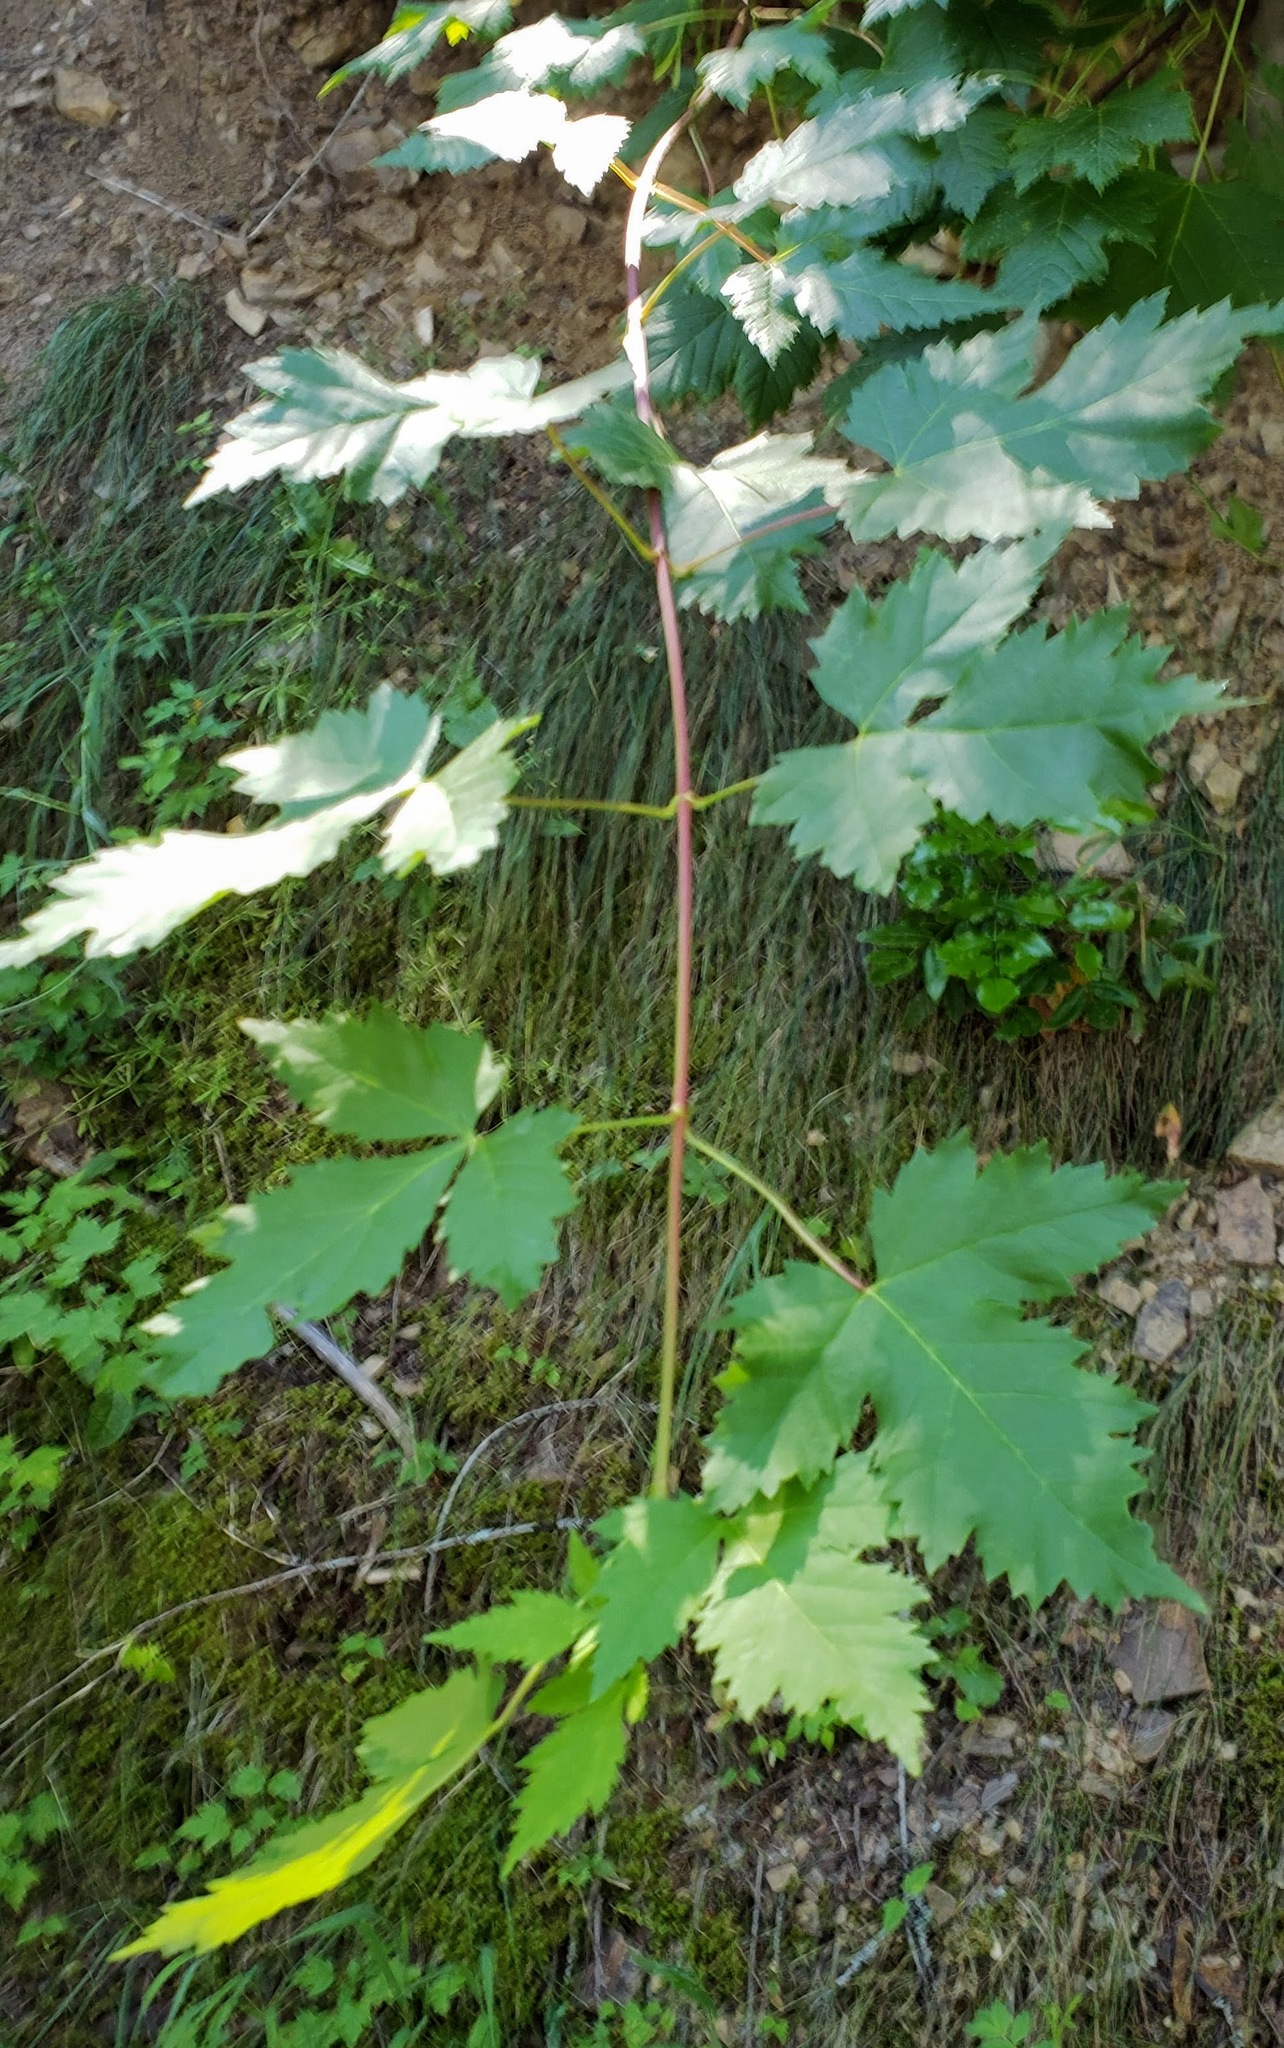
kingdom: Plantae
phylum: Tracheophyta
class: Magnoliopsida
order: Sapindales
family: Sapindaceae
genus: Acer
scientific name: Acer glabrum
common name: Rocky mountain maple
